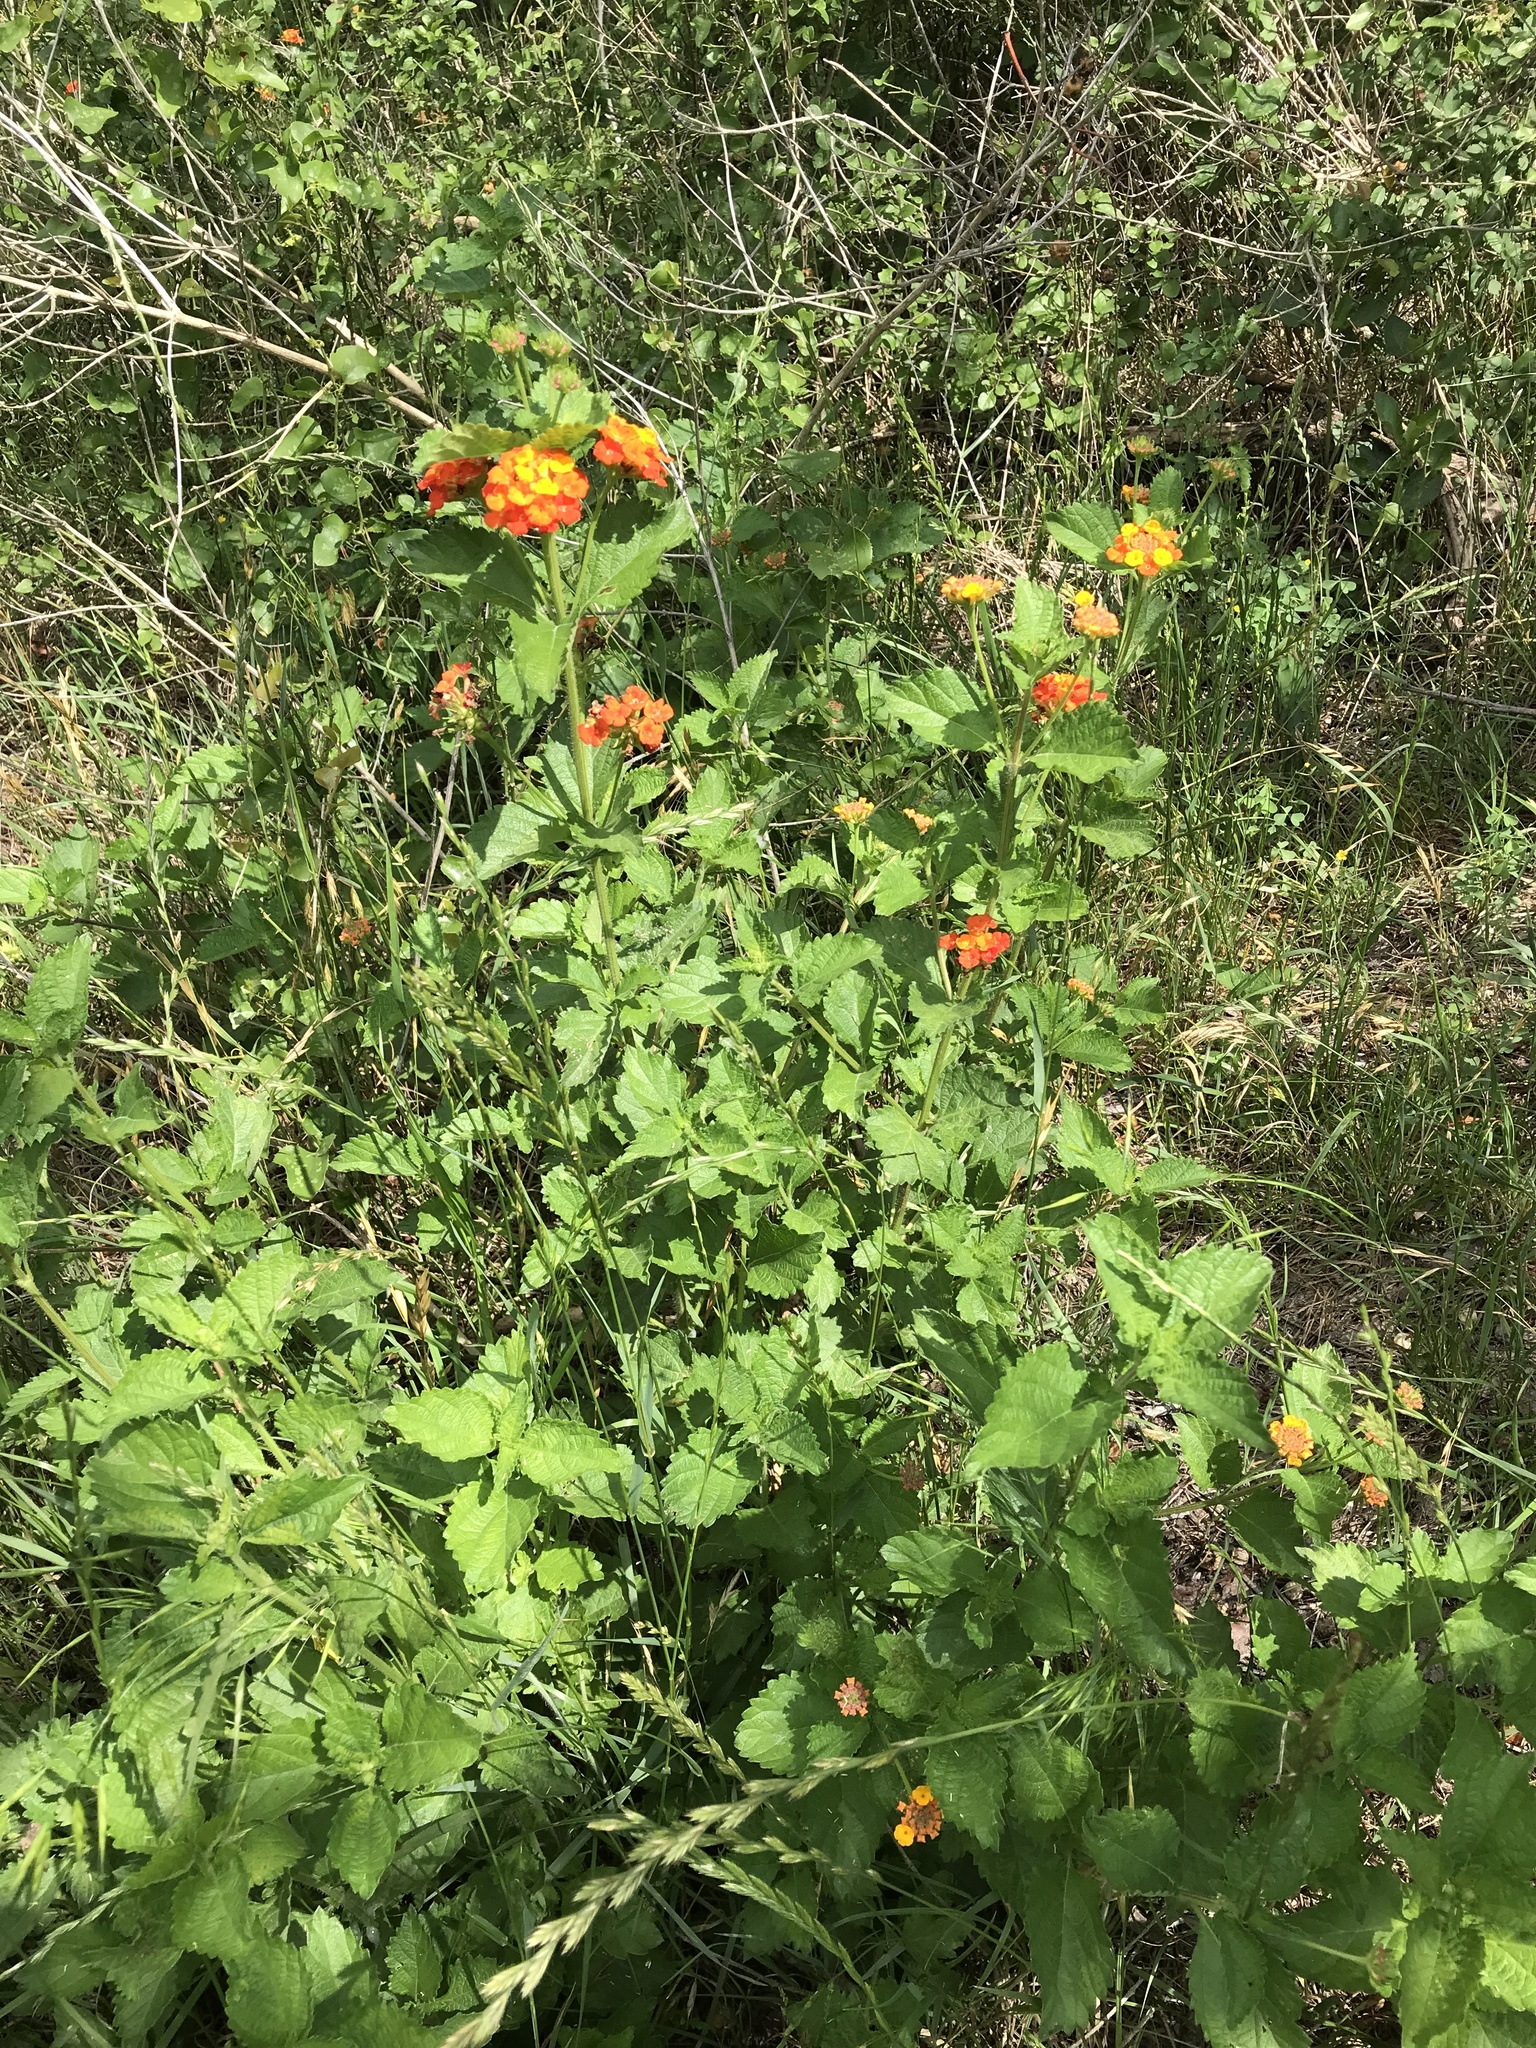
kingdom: Plantae
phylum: Tracheophyta
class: Magnoliopsida
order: Lamiales
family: Verbenaceae
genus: Lantana
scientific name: Lantana urticoides
